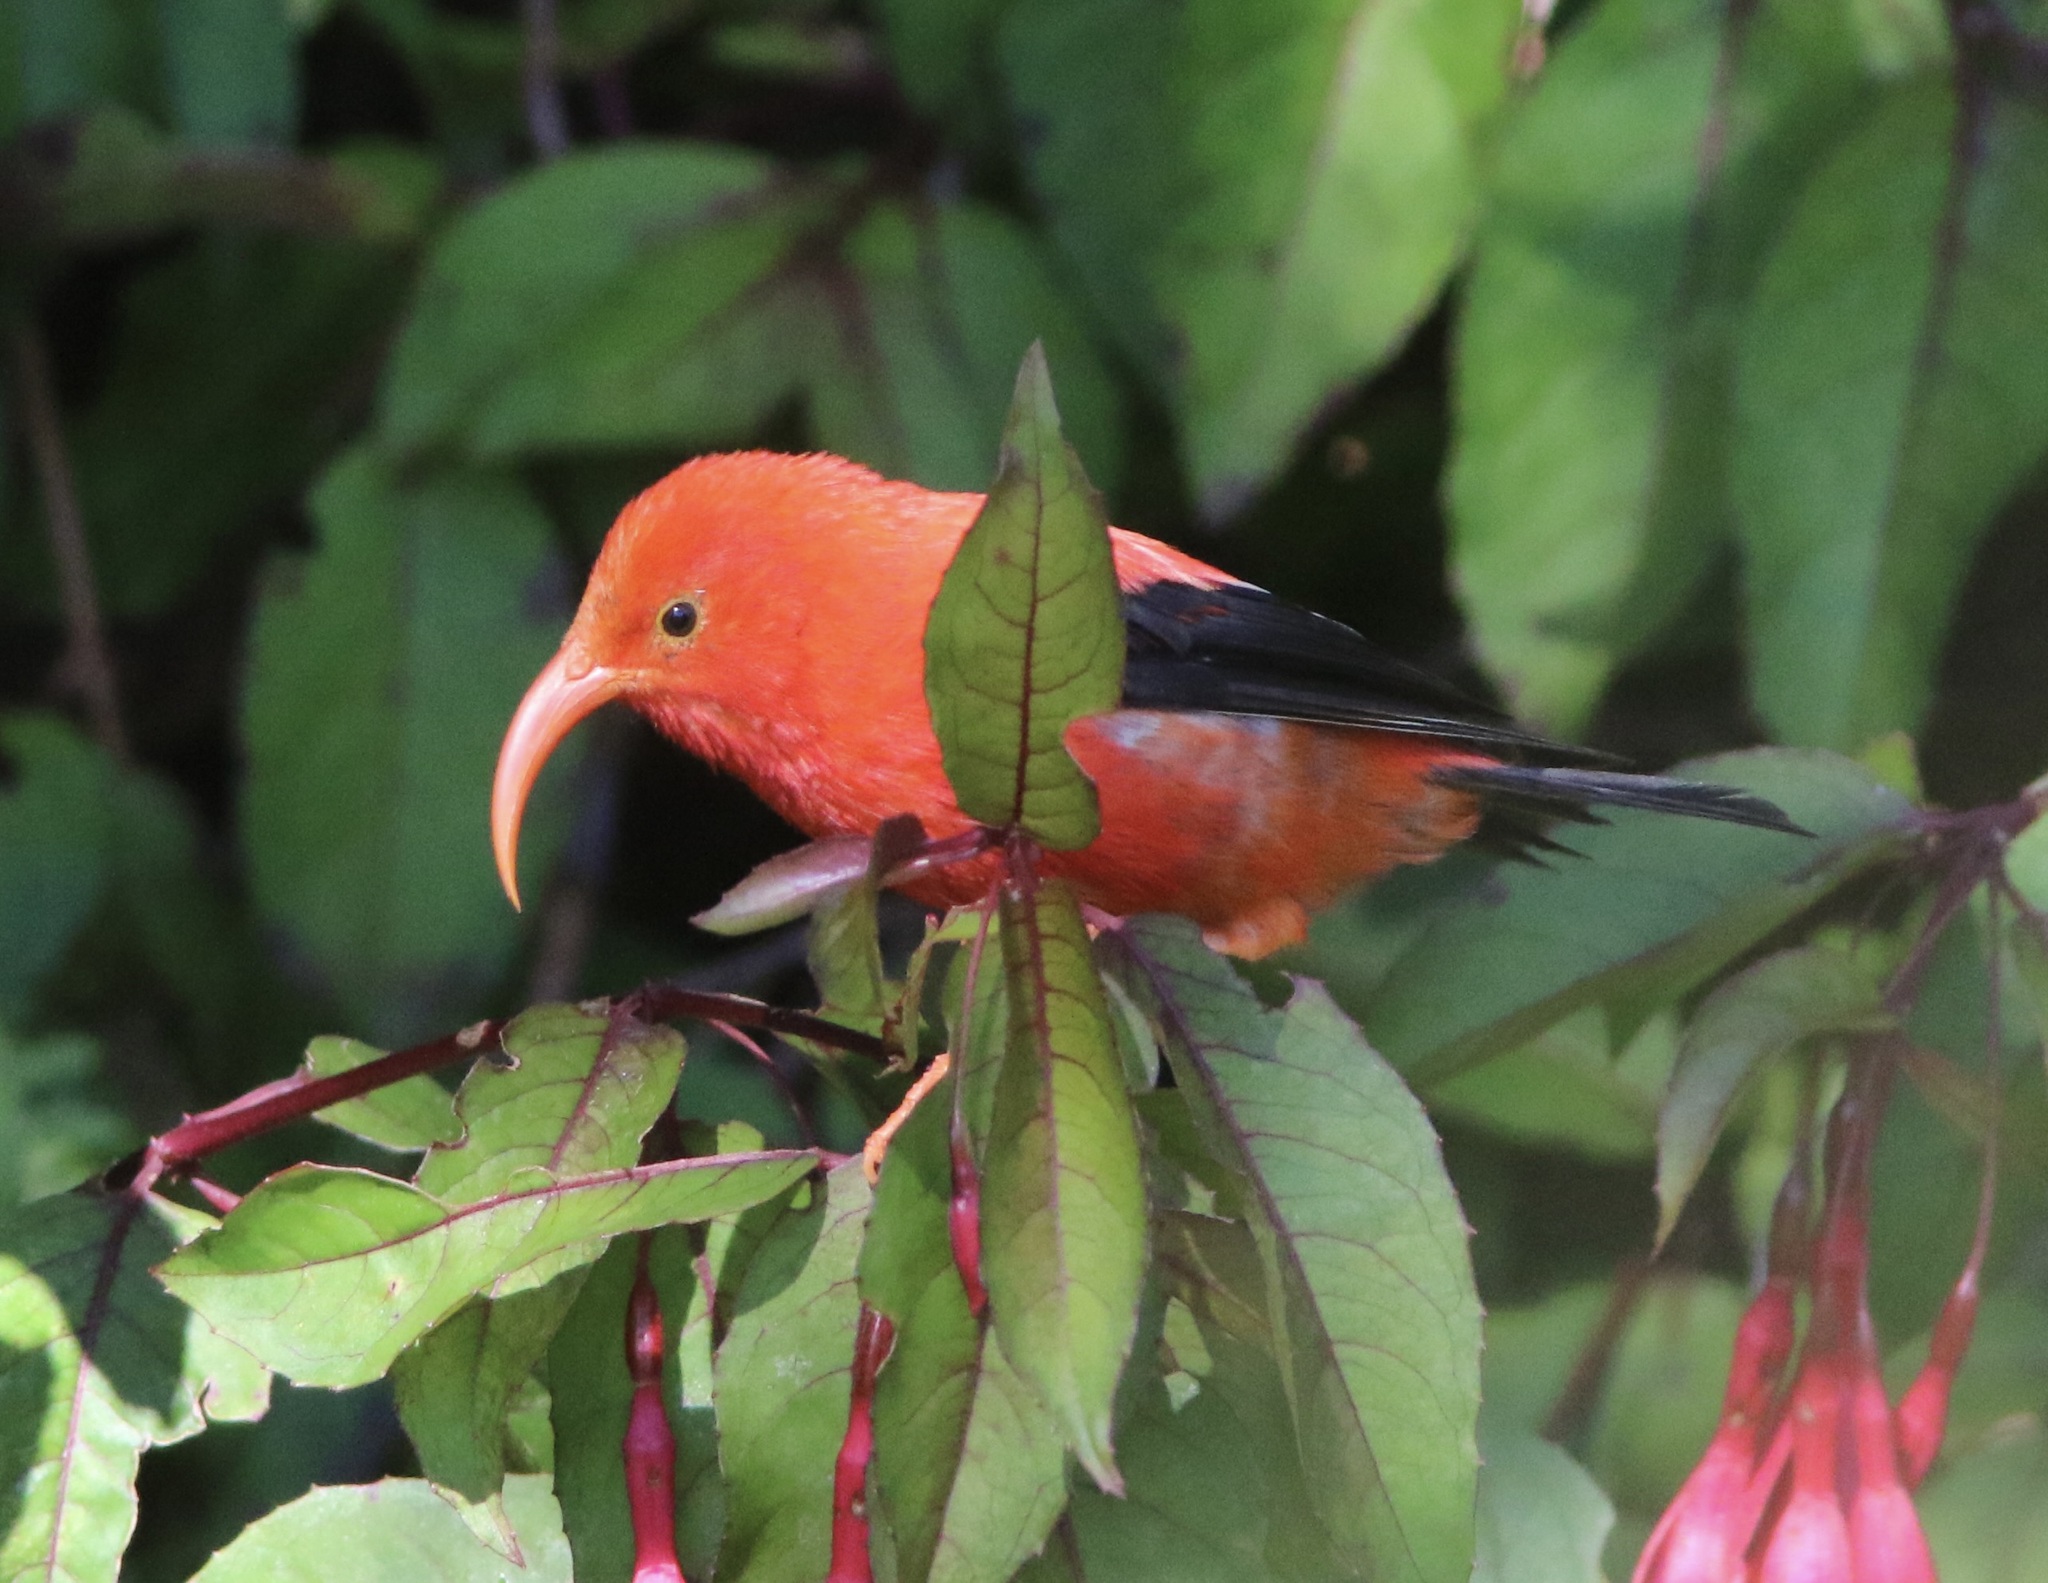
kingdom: Animalia
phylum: Chordata
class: Aves
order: Passeriformes
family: Fringillidae
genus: Vestiaria
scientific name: Vestiaria coccinea
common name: Iiwi
